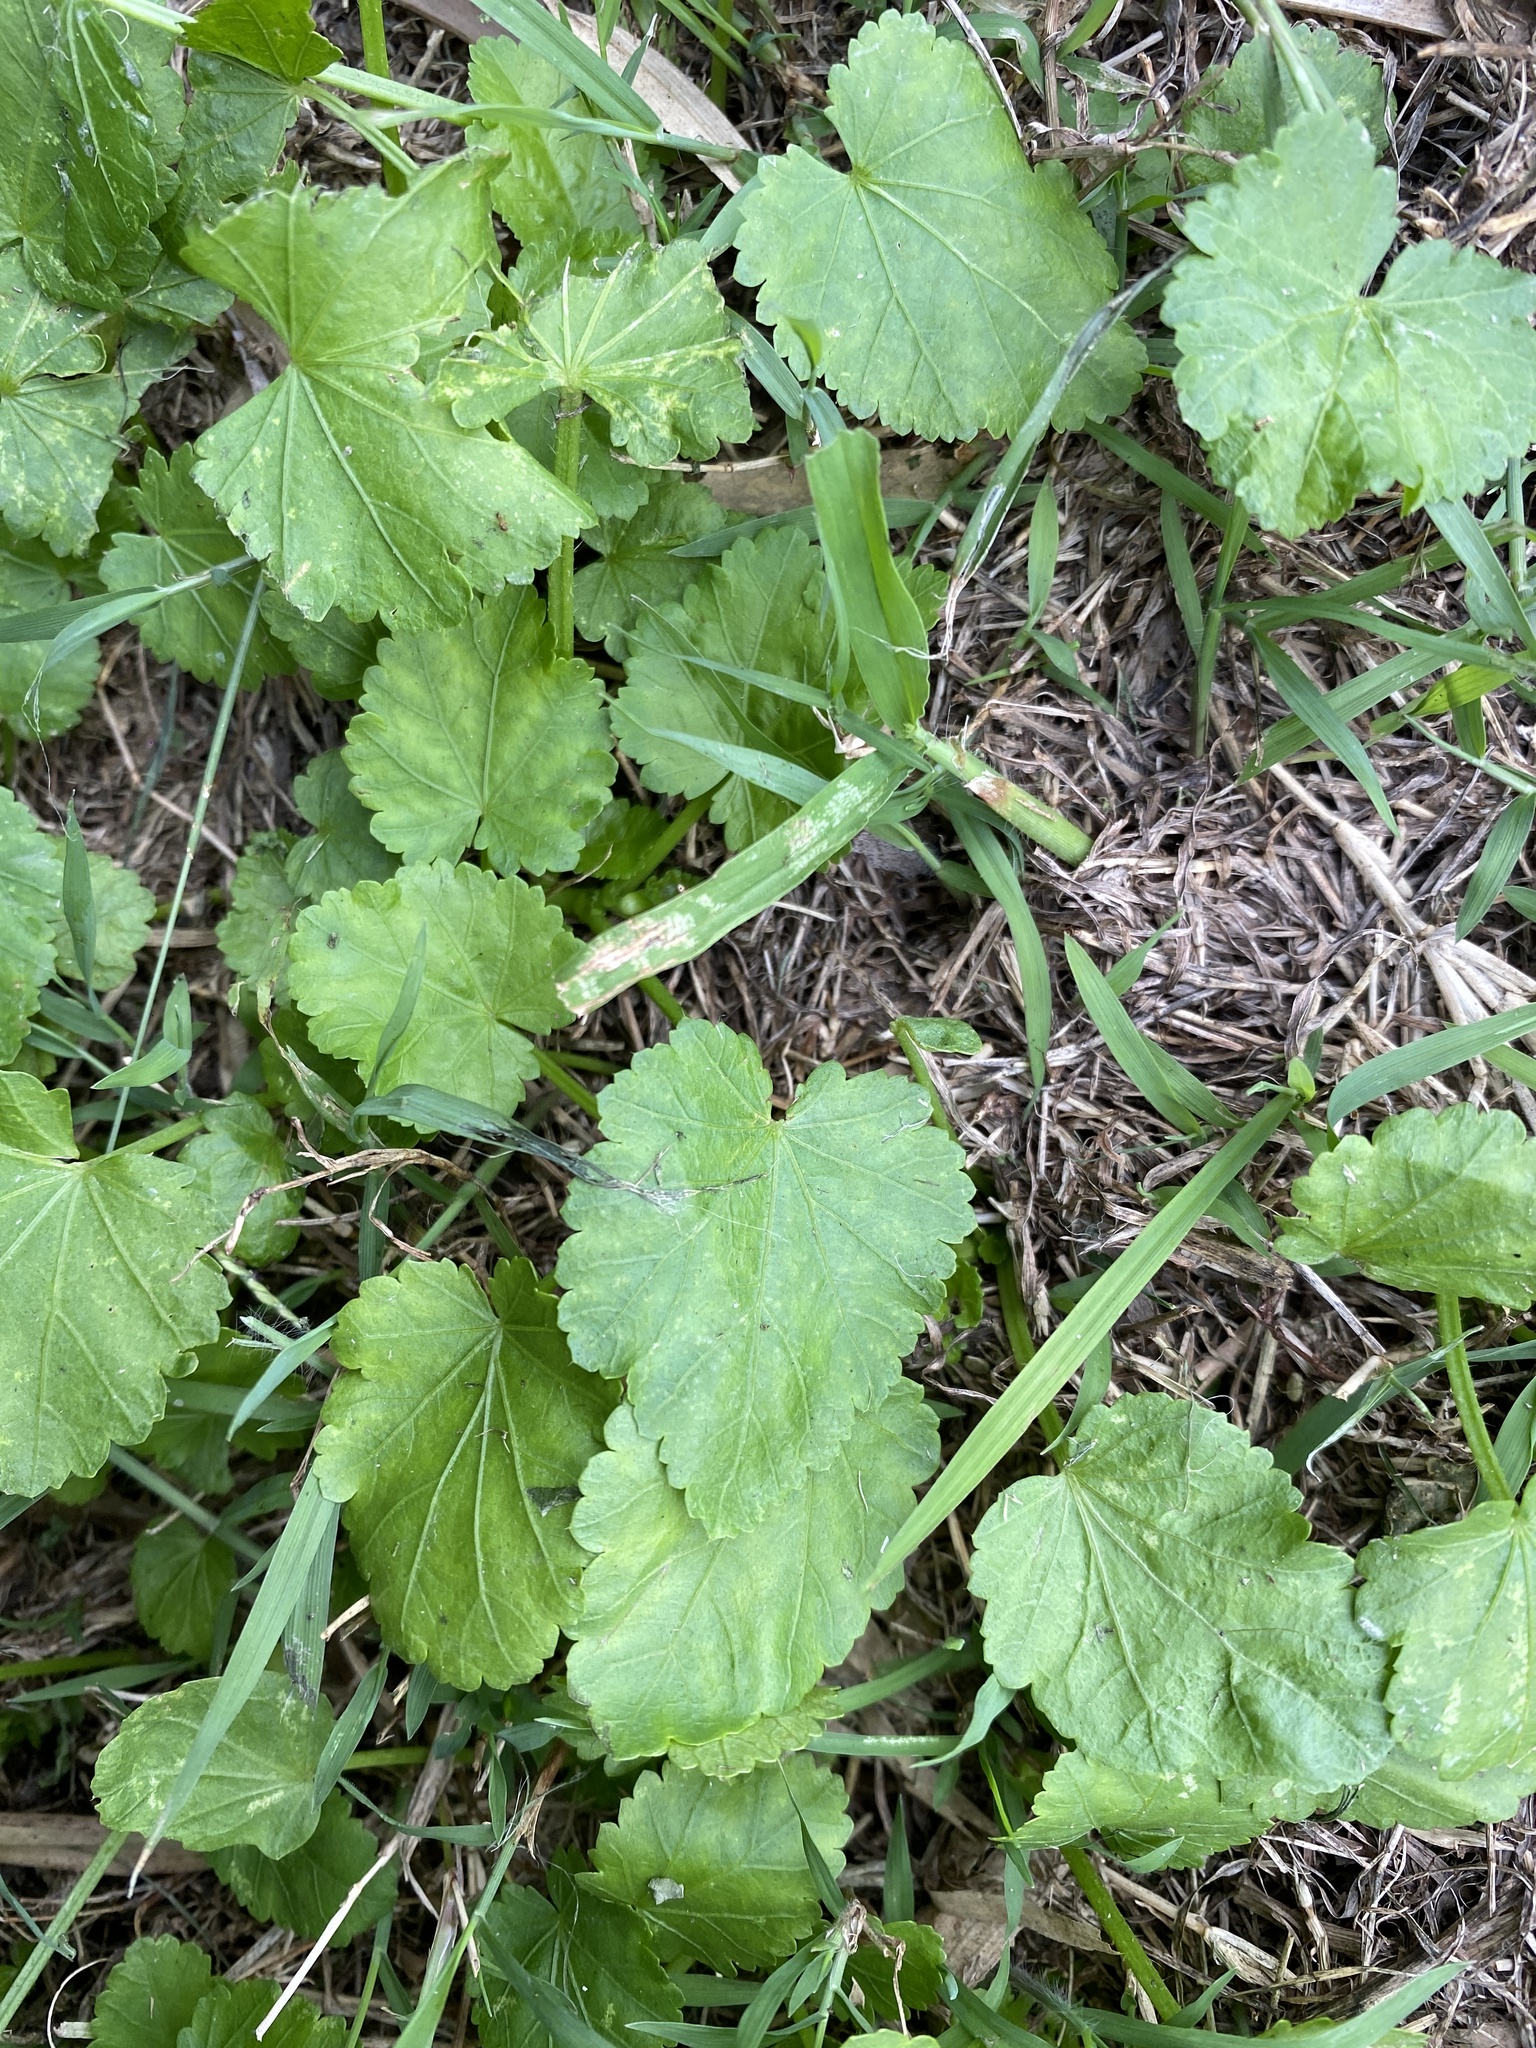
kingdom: Plantae
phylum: Tracheophyta
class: Magnoliopsida
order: Malvales
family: Malvaceae
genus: Modiola
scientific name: Modiola caroliniana
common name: Carolina bristlemallow
